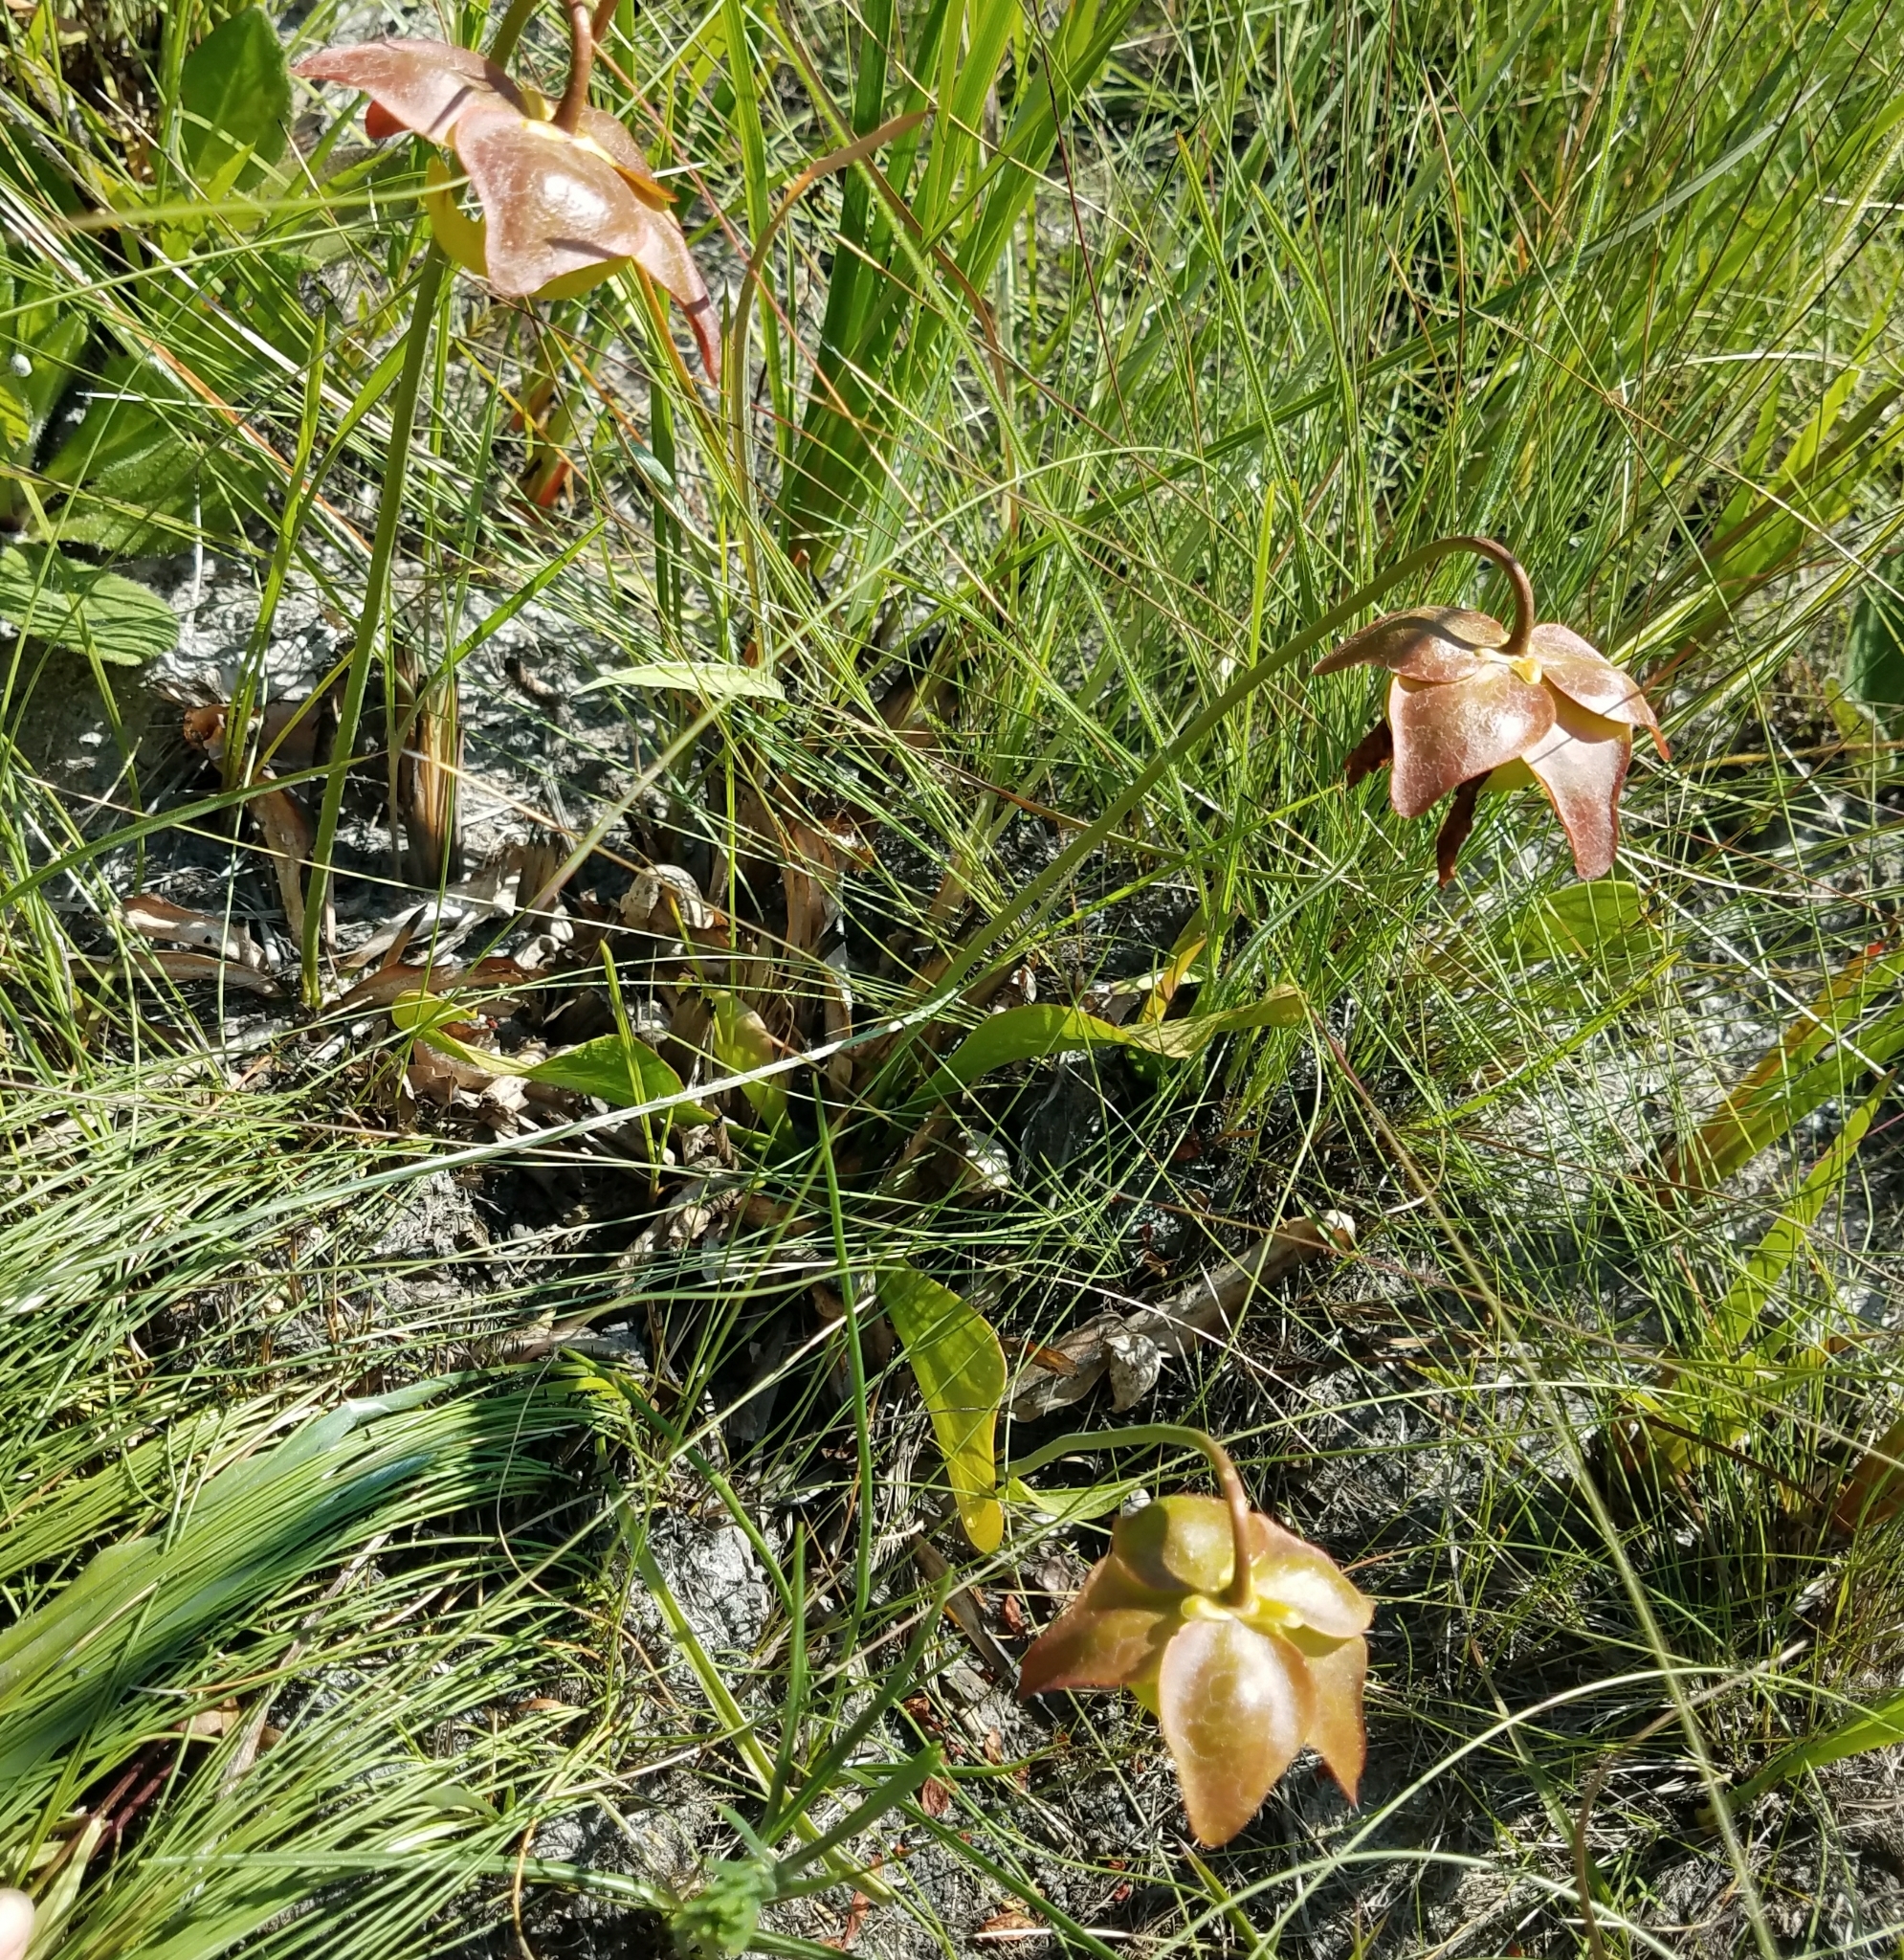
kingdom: Plantae
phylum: Tracheophyta
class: Magnoliopsida
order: Ericales
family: Sarraceniaceae
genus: Sarracenia
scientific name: Sarracenia psittacina
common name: Parrot pitcherplant
